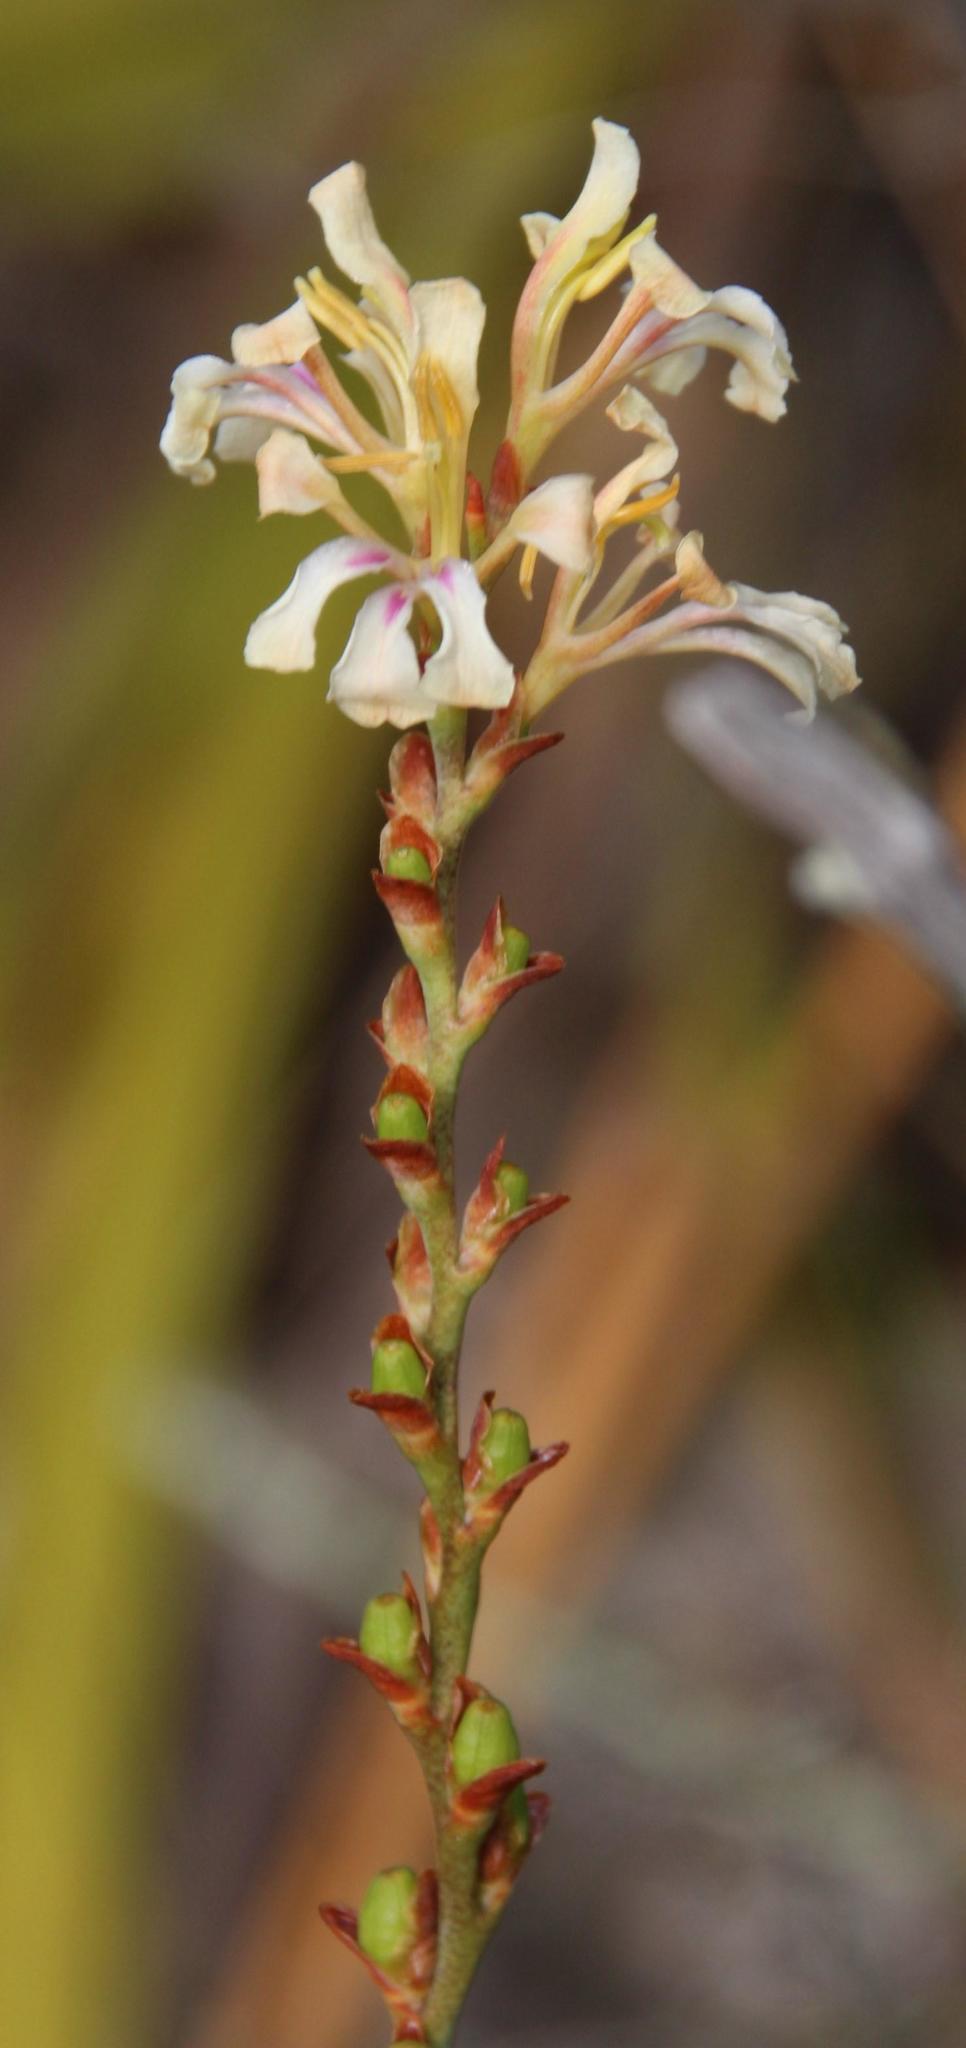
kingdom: Plantae
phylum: Tracheophyta
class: Liliopsida
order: Asparagales
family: Iridaceae
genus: Tritoniopsis
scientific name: Tritoniopsis unguicularis
